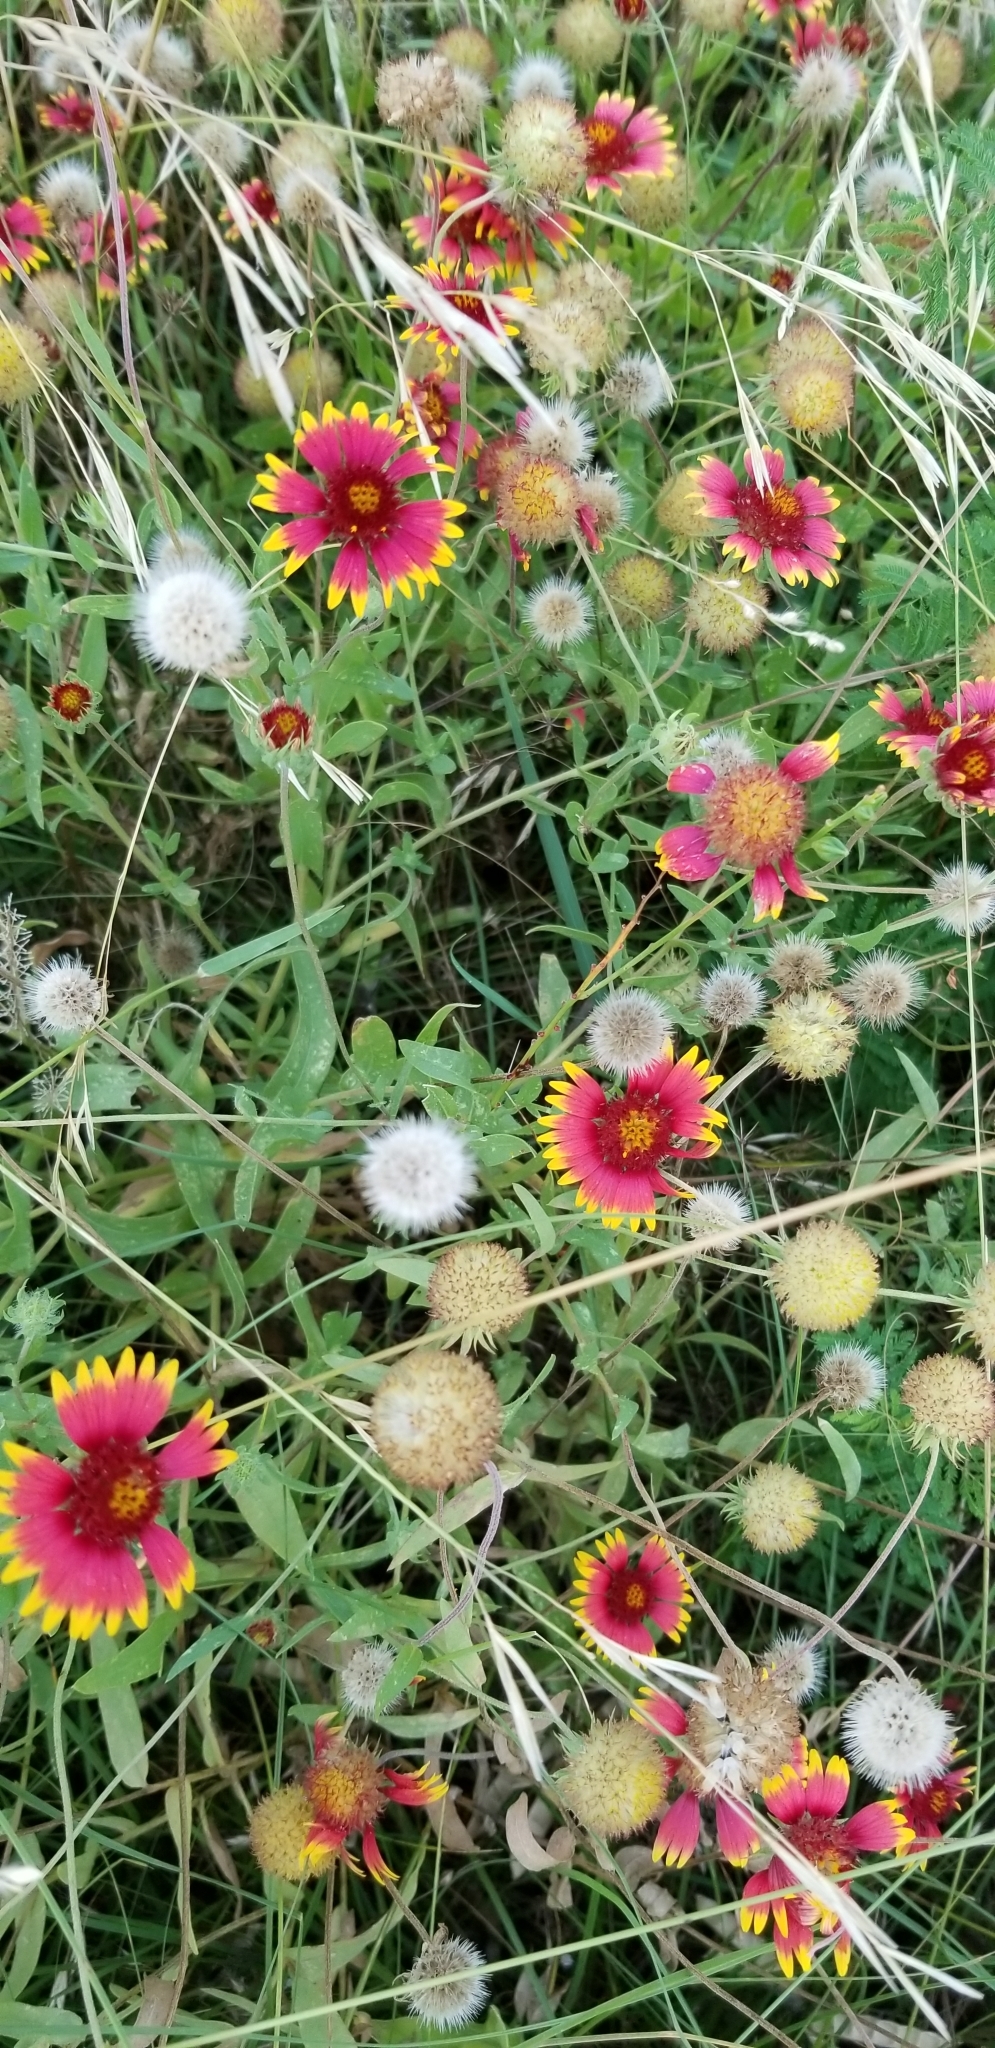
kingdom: Plantae
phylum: Tracheophyta
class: Magnoliopsida
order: Asterales
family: Asteraceae
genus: Gaillardia
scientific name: Gaillardia pulchella
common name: Firewheel
